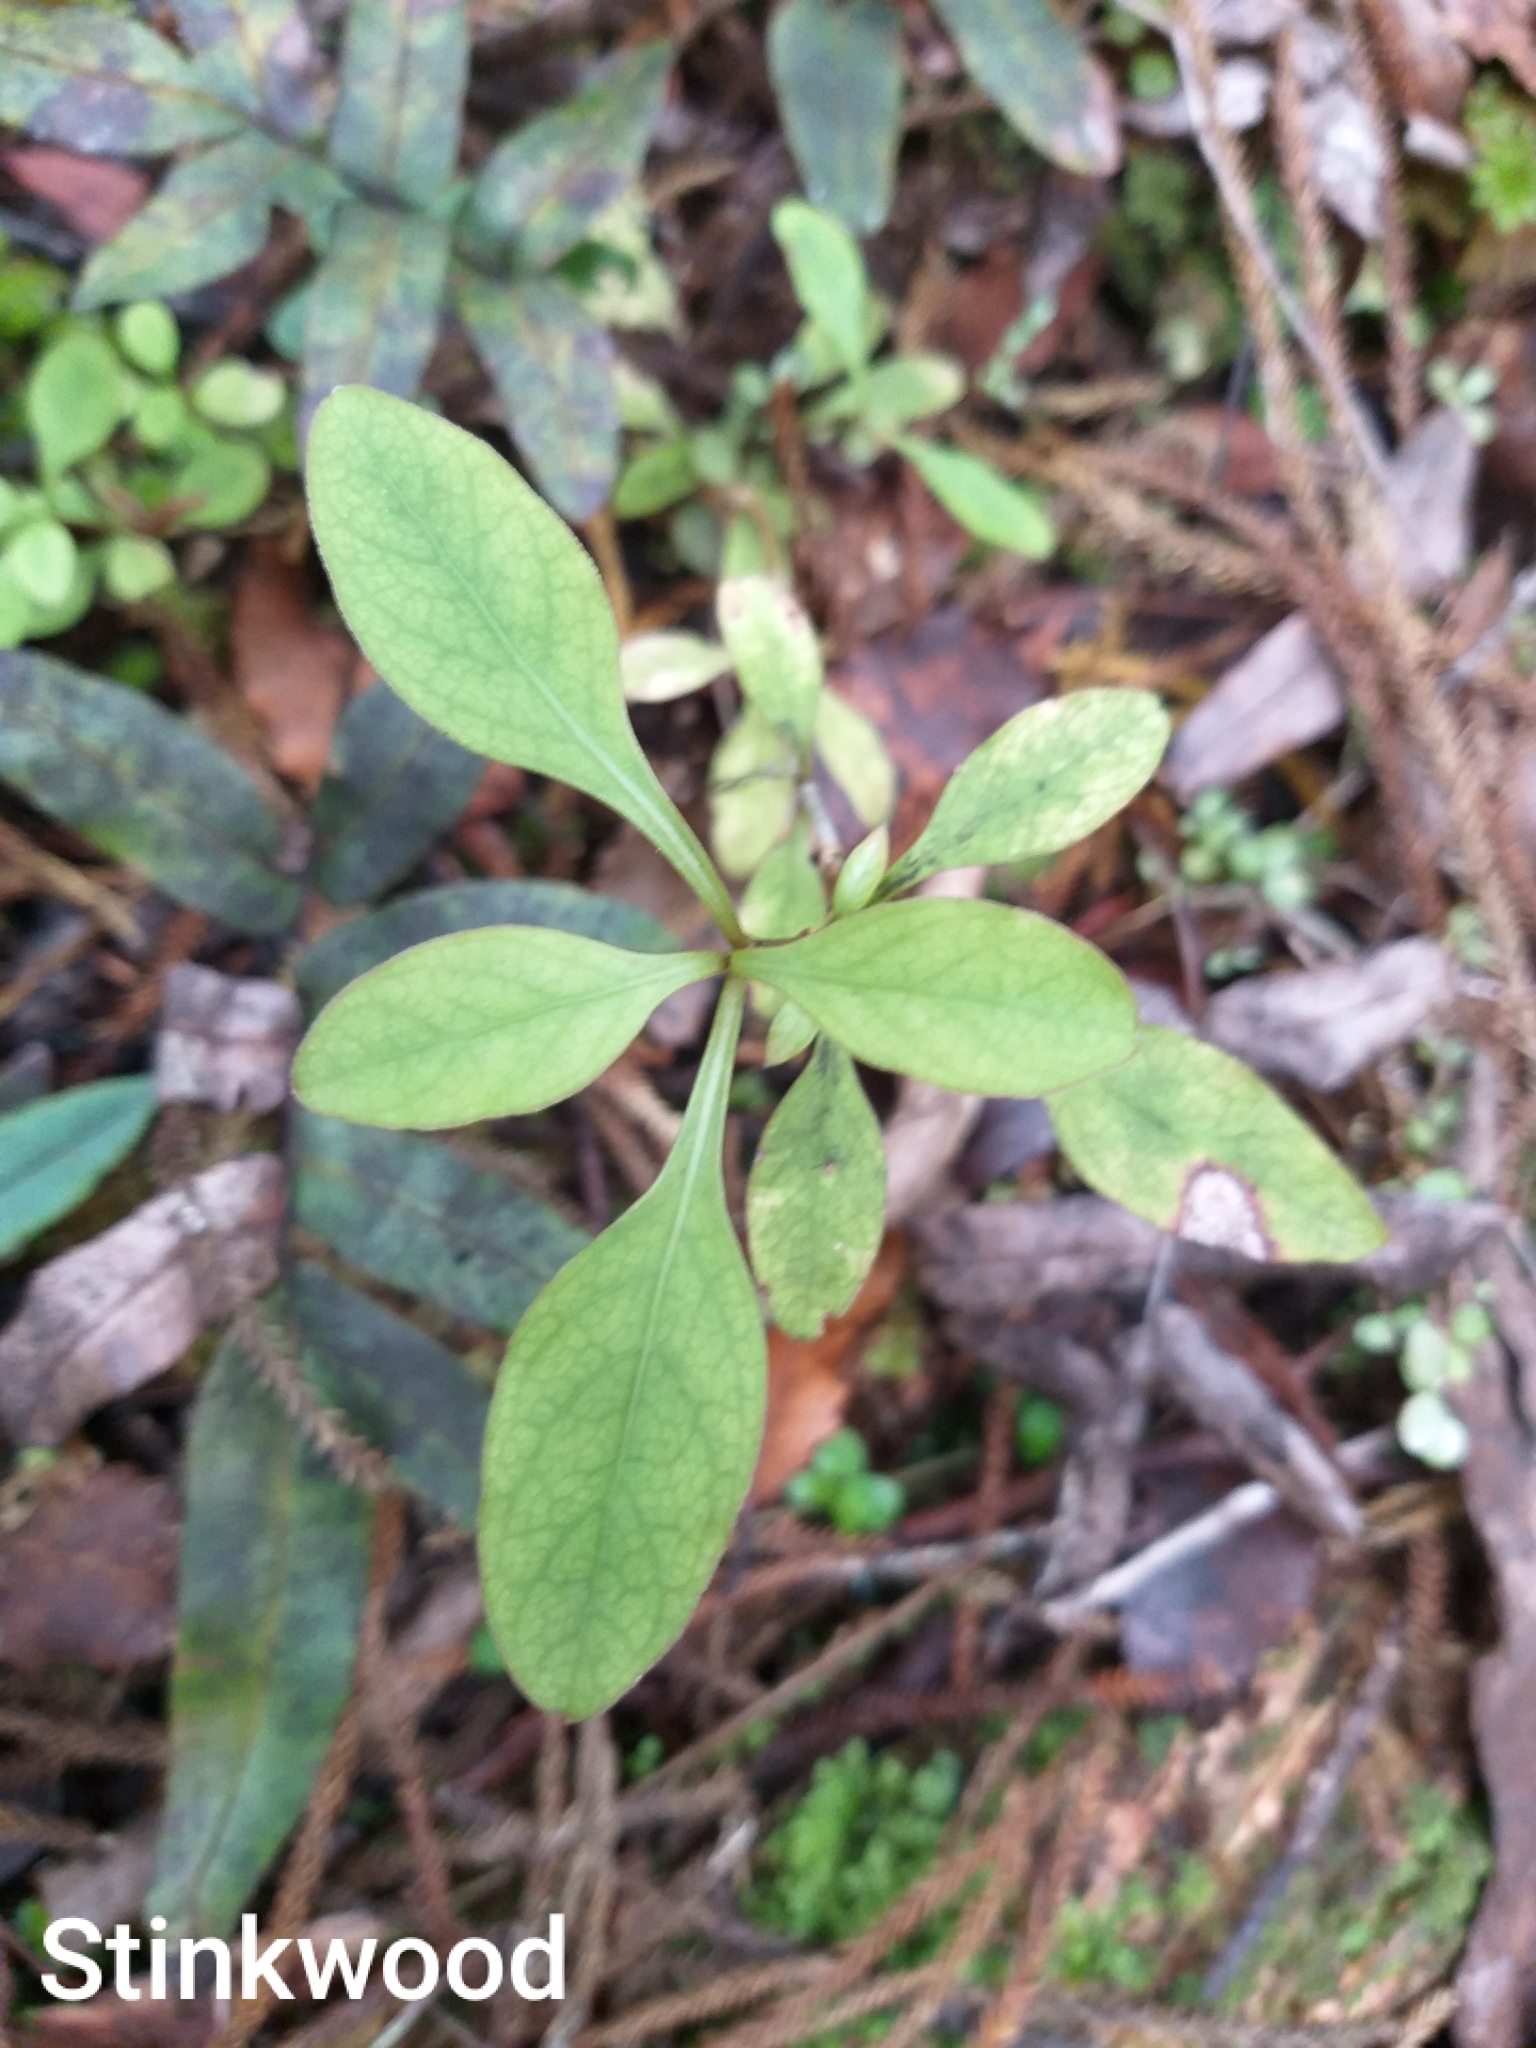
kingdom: Plantae
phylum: Tracheophyta
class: Magnoliopsida
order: Gentianales
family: Rubiaceae
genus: Coprosma
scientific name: Coprosma foetidissima
